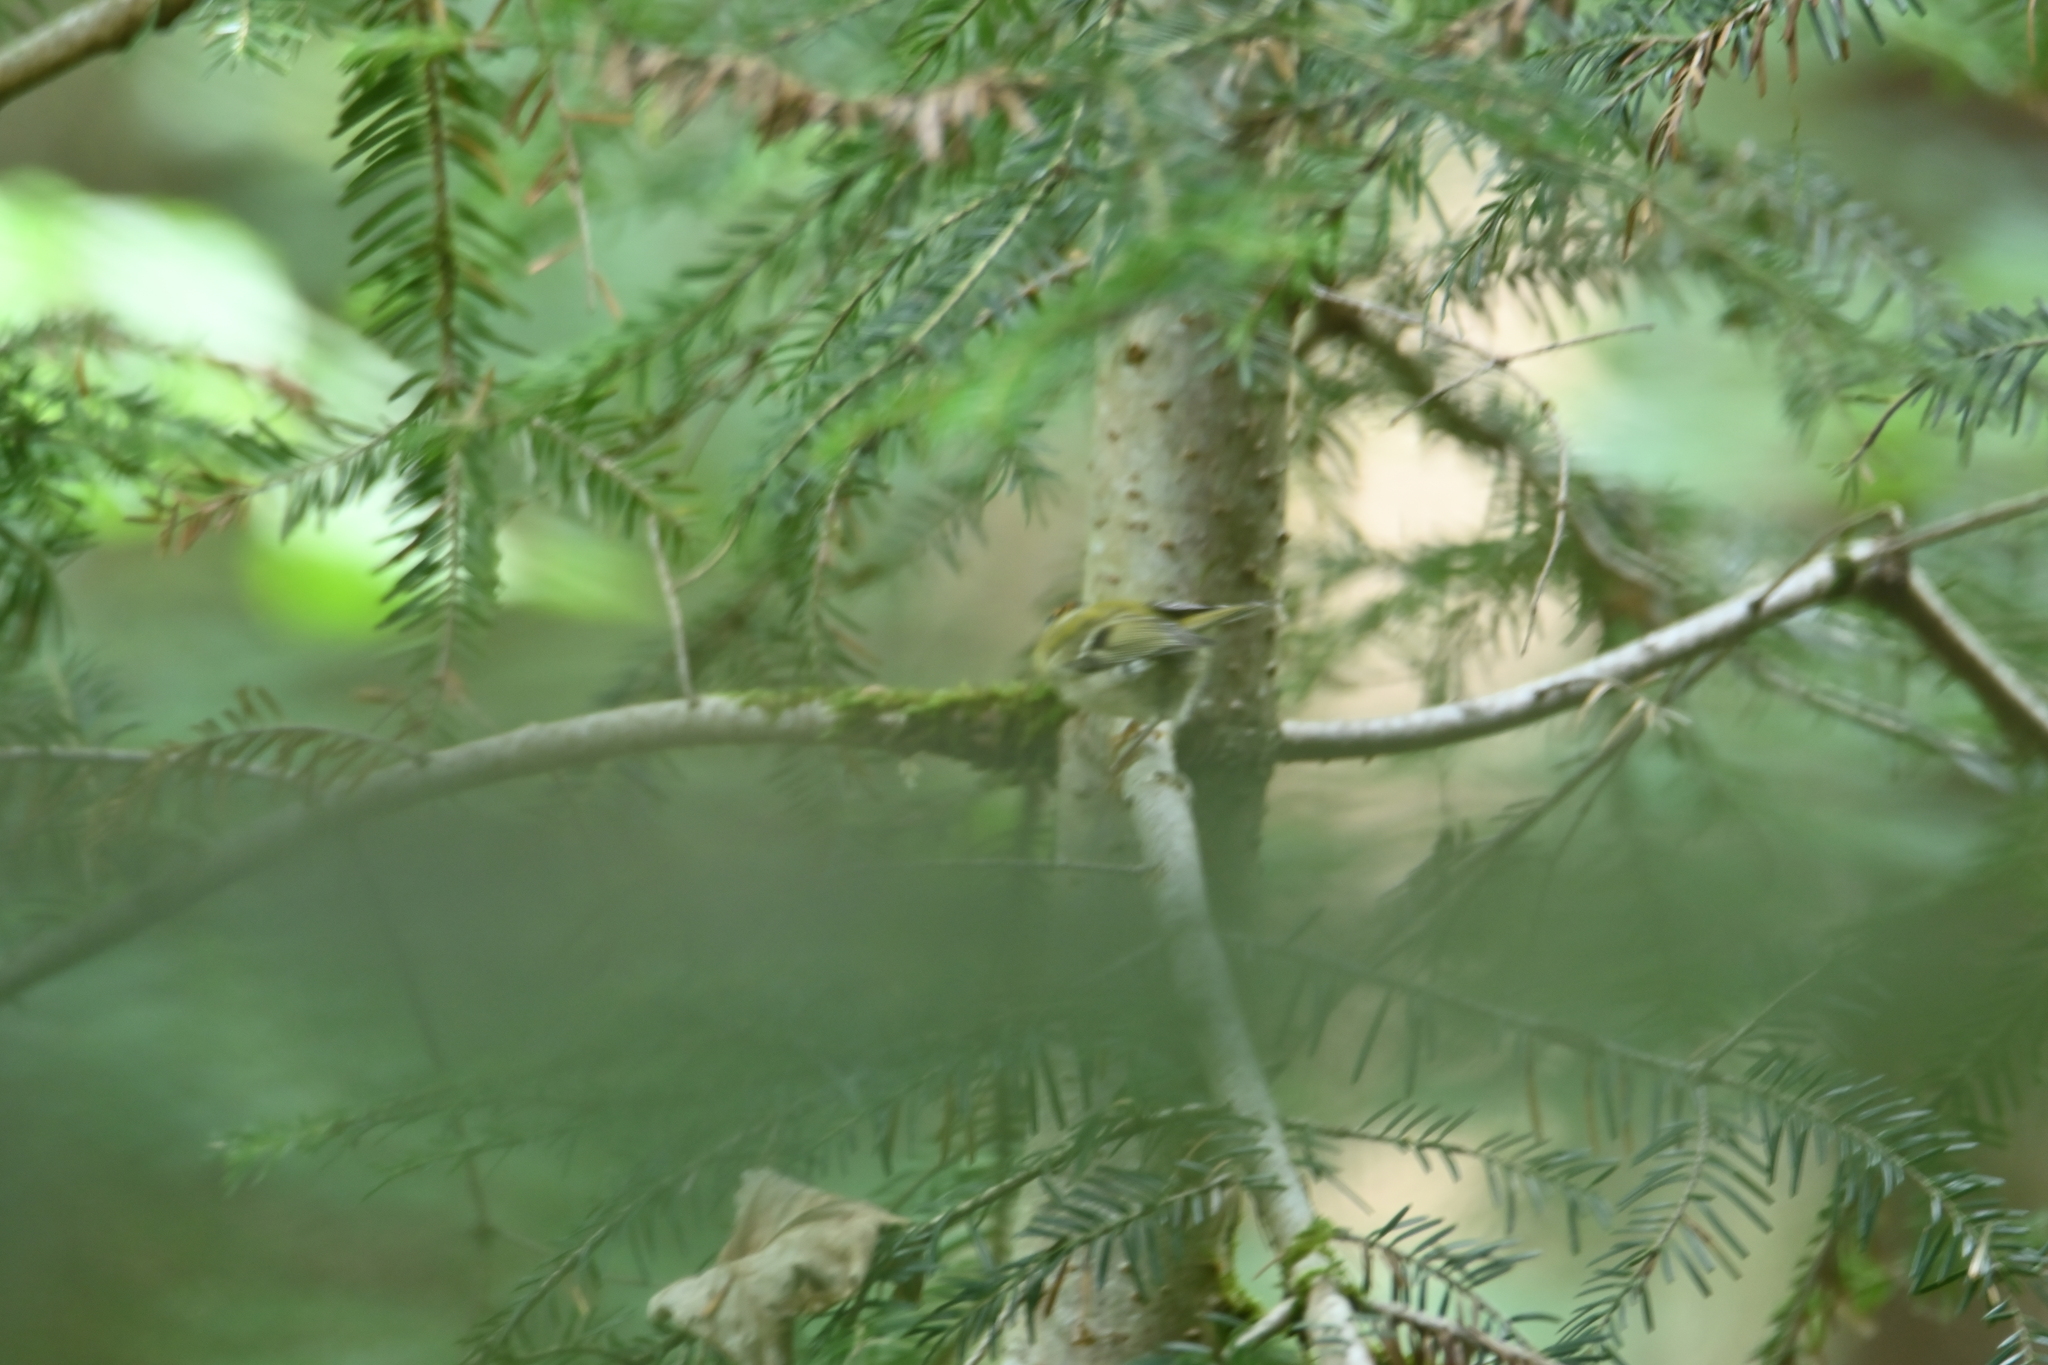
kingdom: Animalia
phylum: Chordata
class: Aves
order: Passeriformes
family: Regulidae
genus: Regulus
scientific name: Regulus ignicapilla
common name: Firecrest
